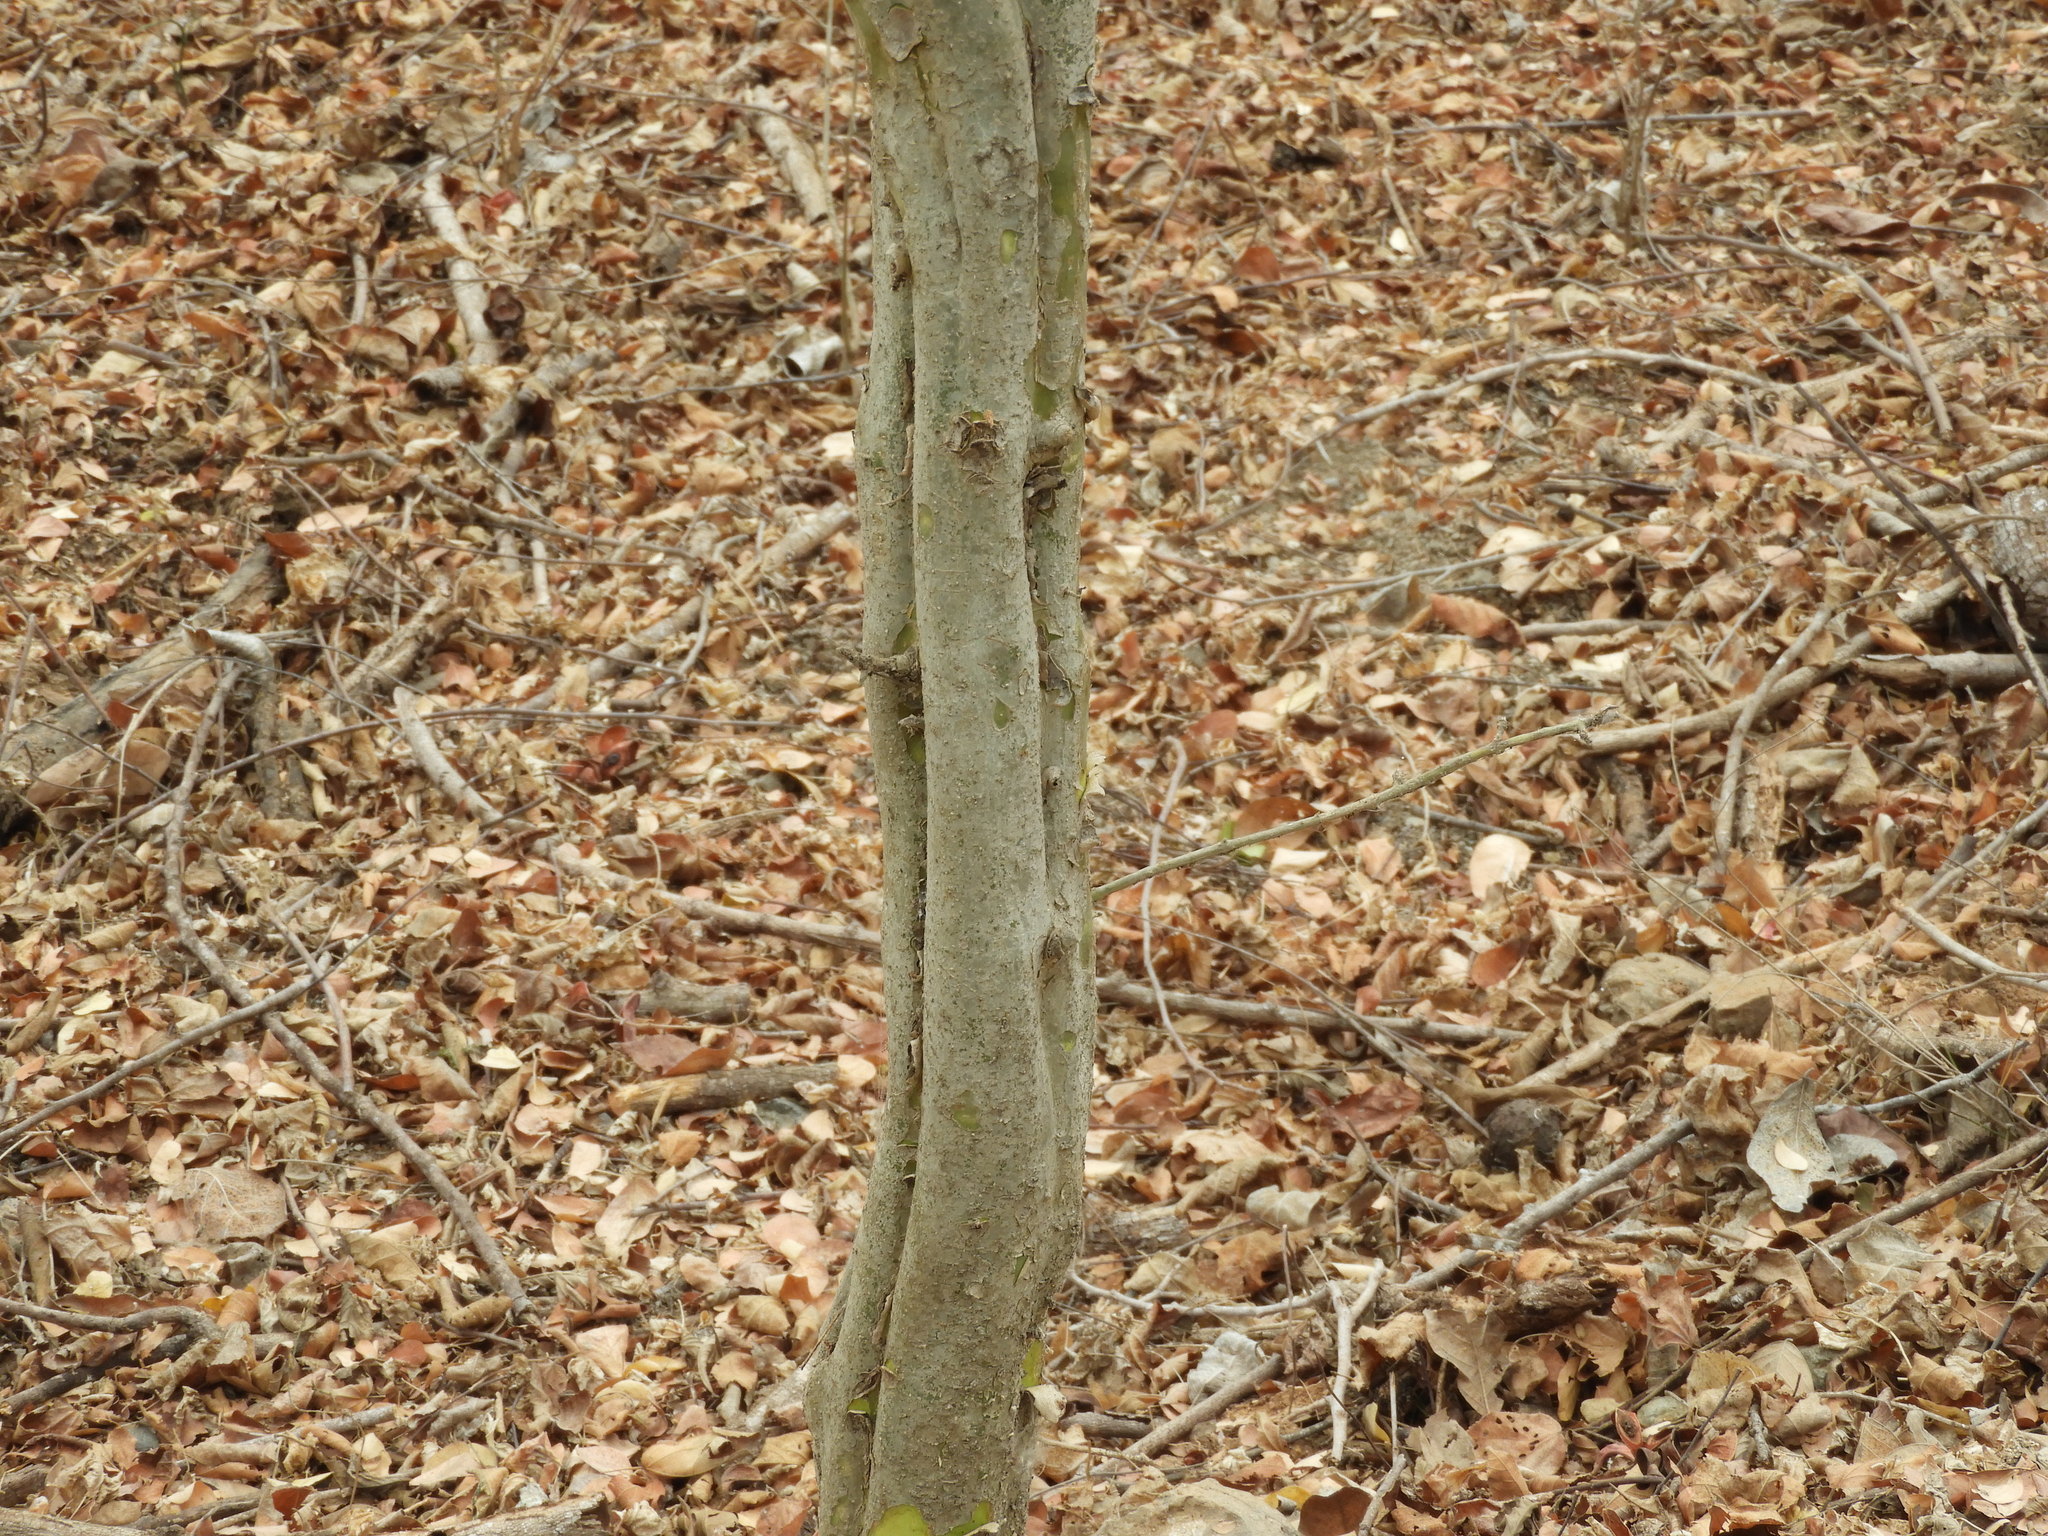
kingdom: Plantae
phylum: Tracheophyta
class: Magnoliopsida
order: Gentianales
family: Rubiaceae
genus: Randia
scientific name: Randia echinocarpa
